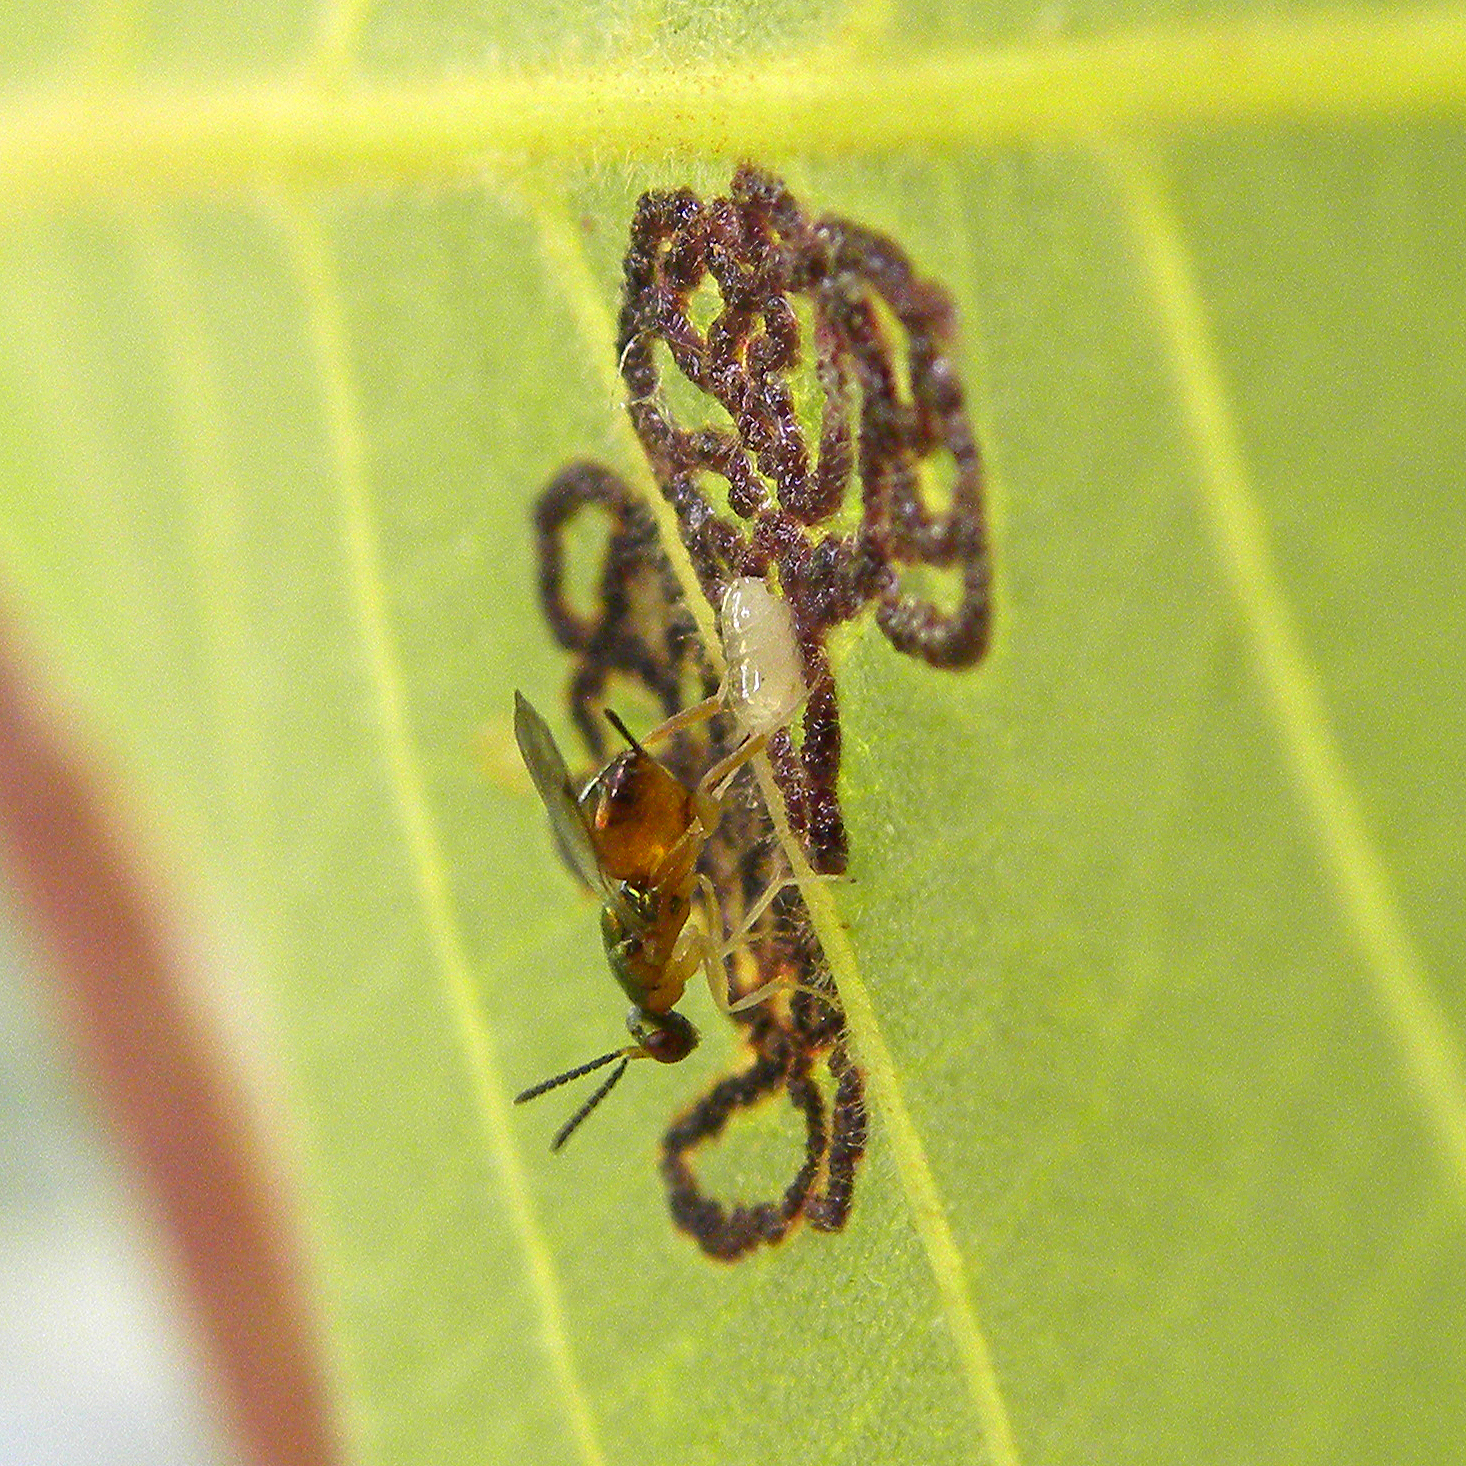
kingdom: Animalia
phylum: Arthropoda
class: Insecta
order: Diptera
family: Cecidomyiidae
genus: Gliaspilota
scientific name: Gliaspilota glutinosa
